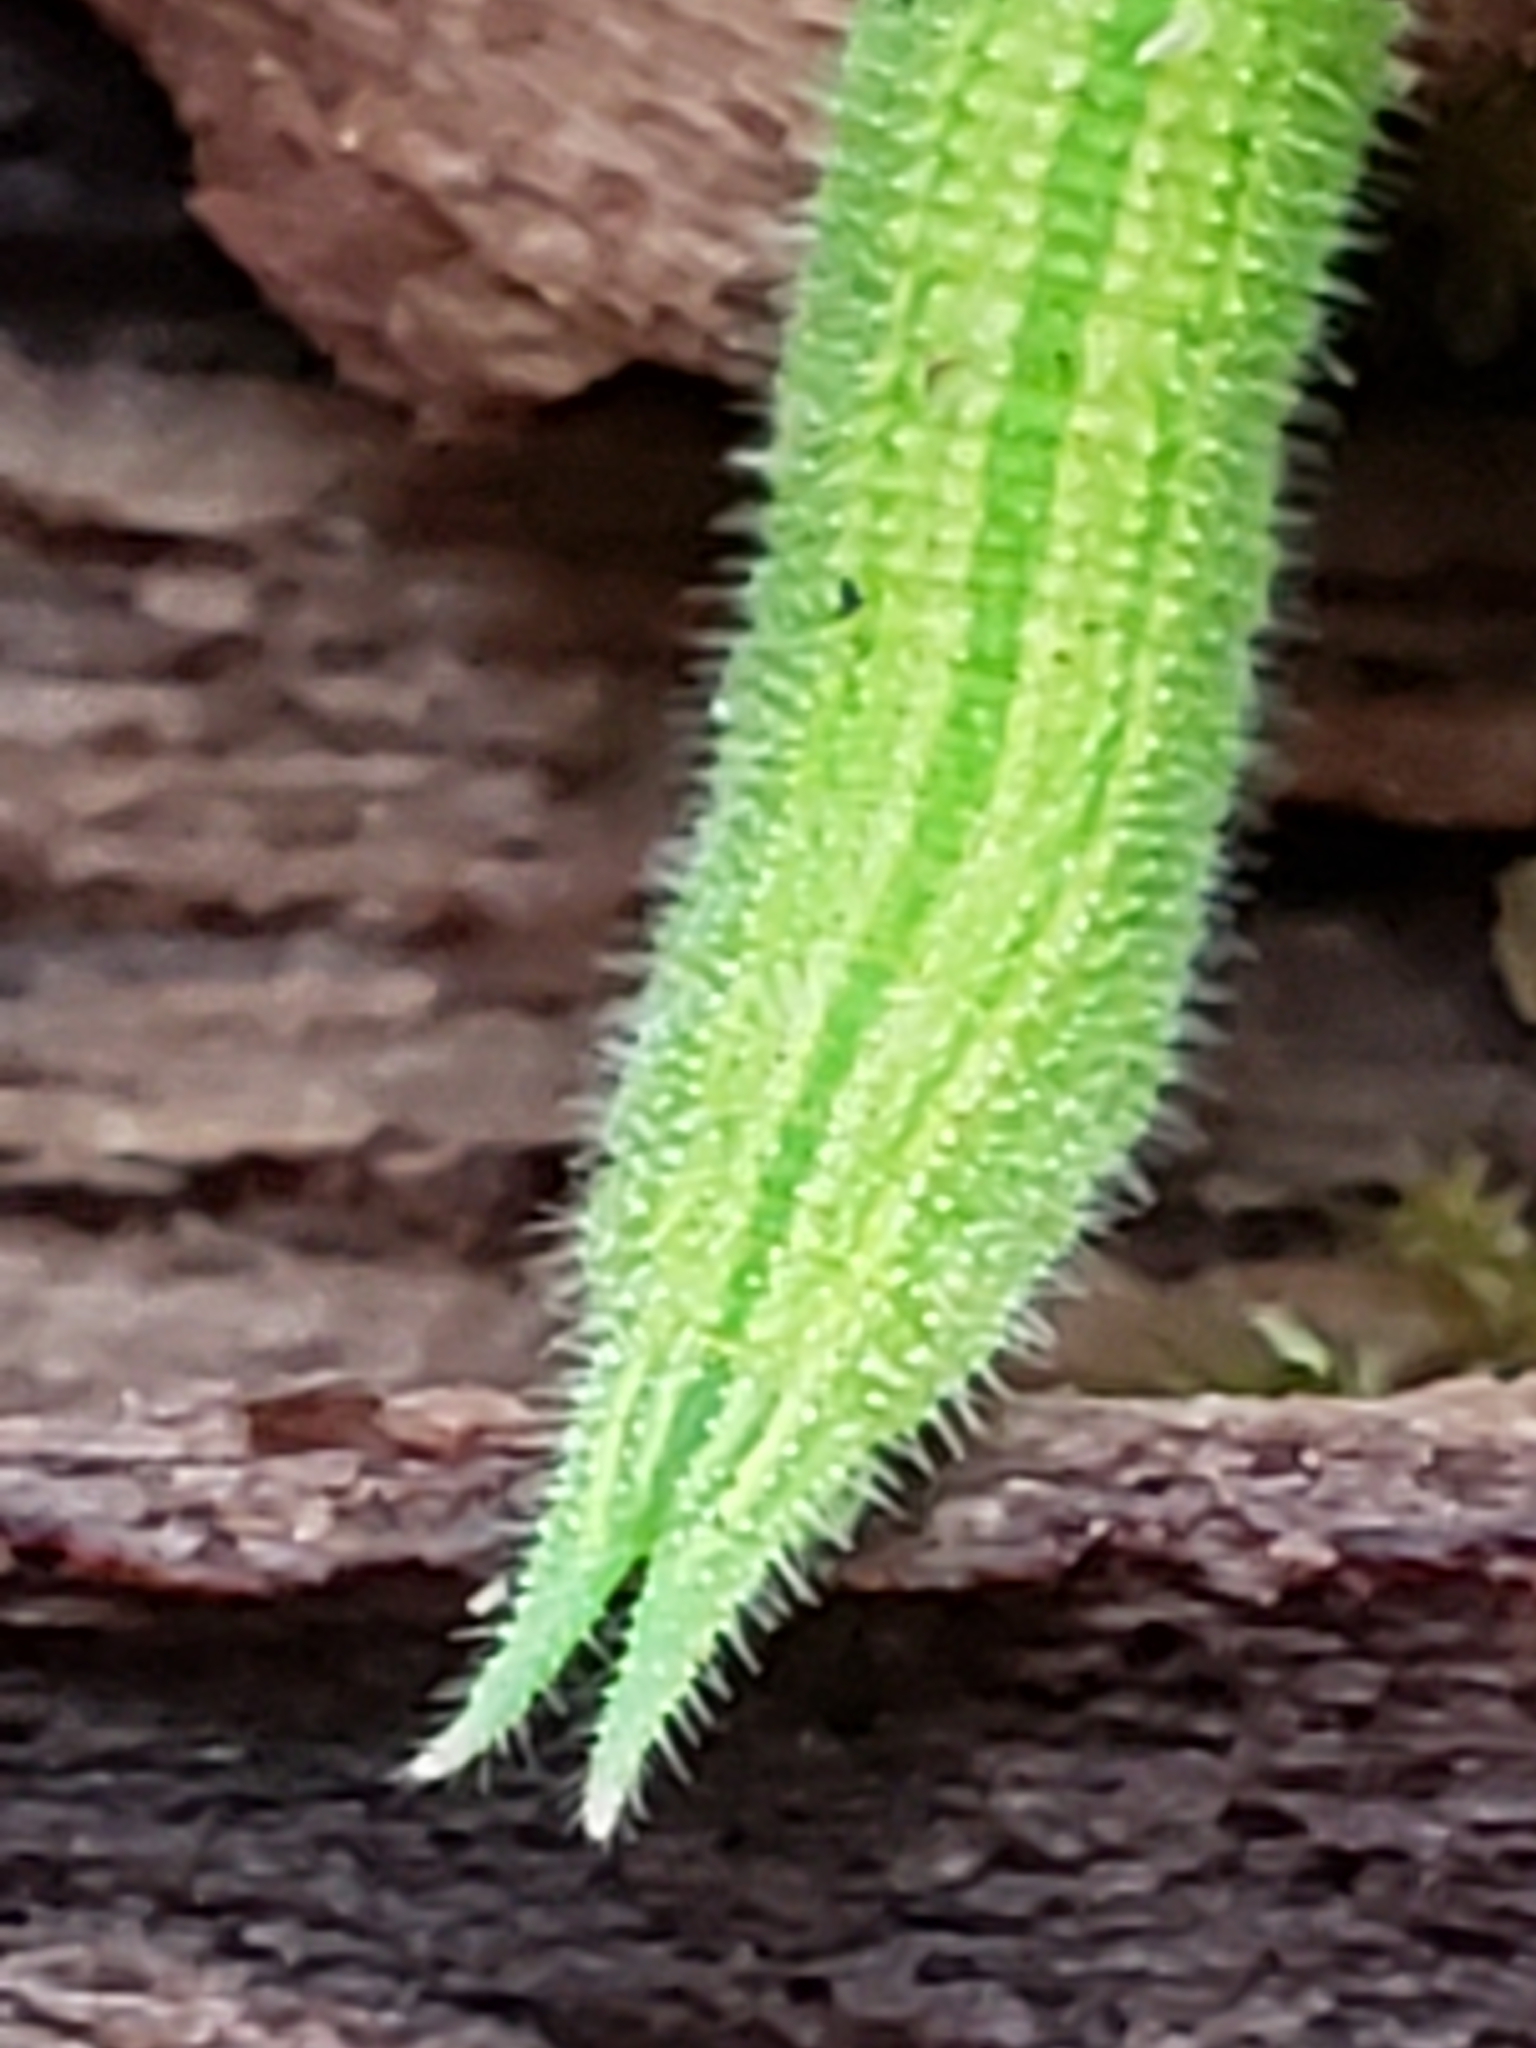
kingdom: Animalia
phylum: Arthropoda
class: Insecta
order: Lepidoptera
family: Nymphalidae
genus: Lethe
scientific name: Lethe anthedon
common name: Northern pearly-eye
